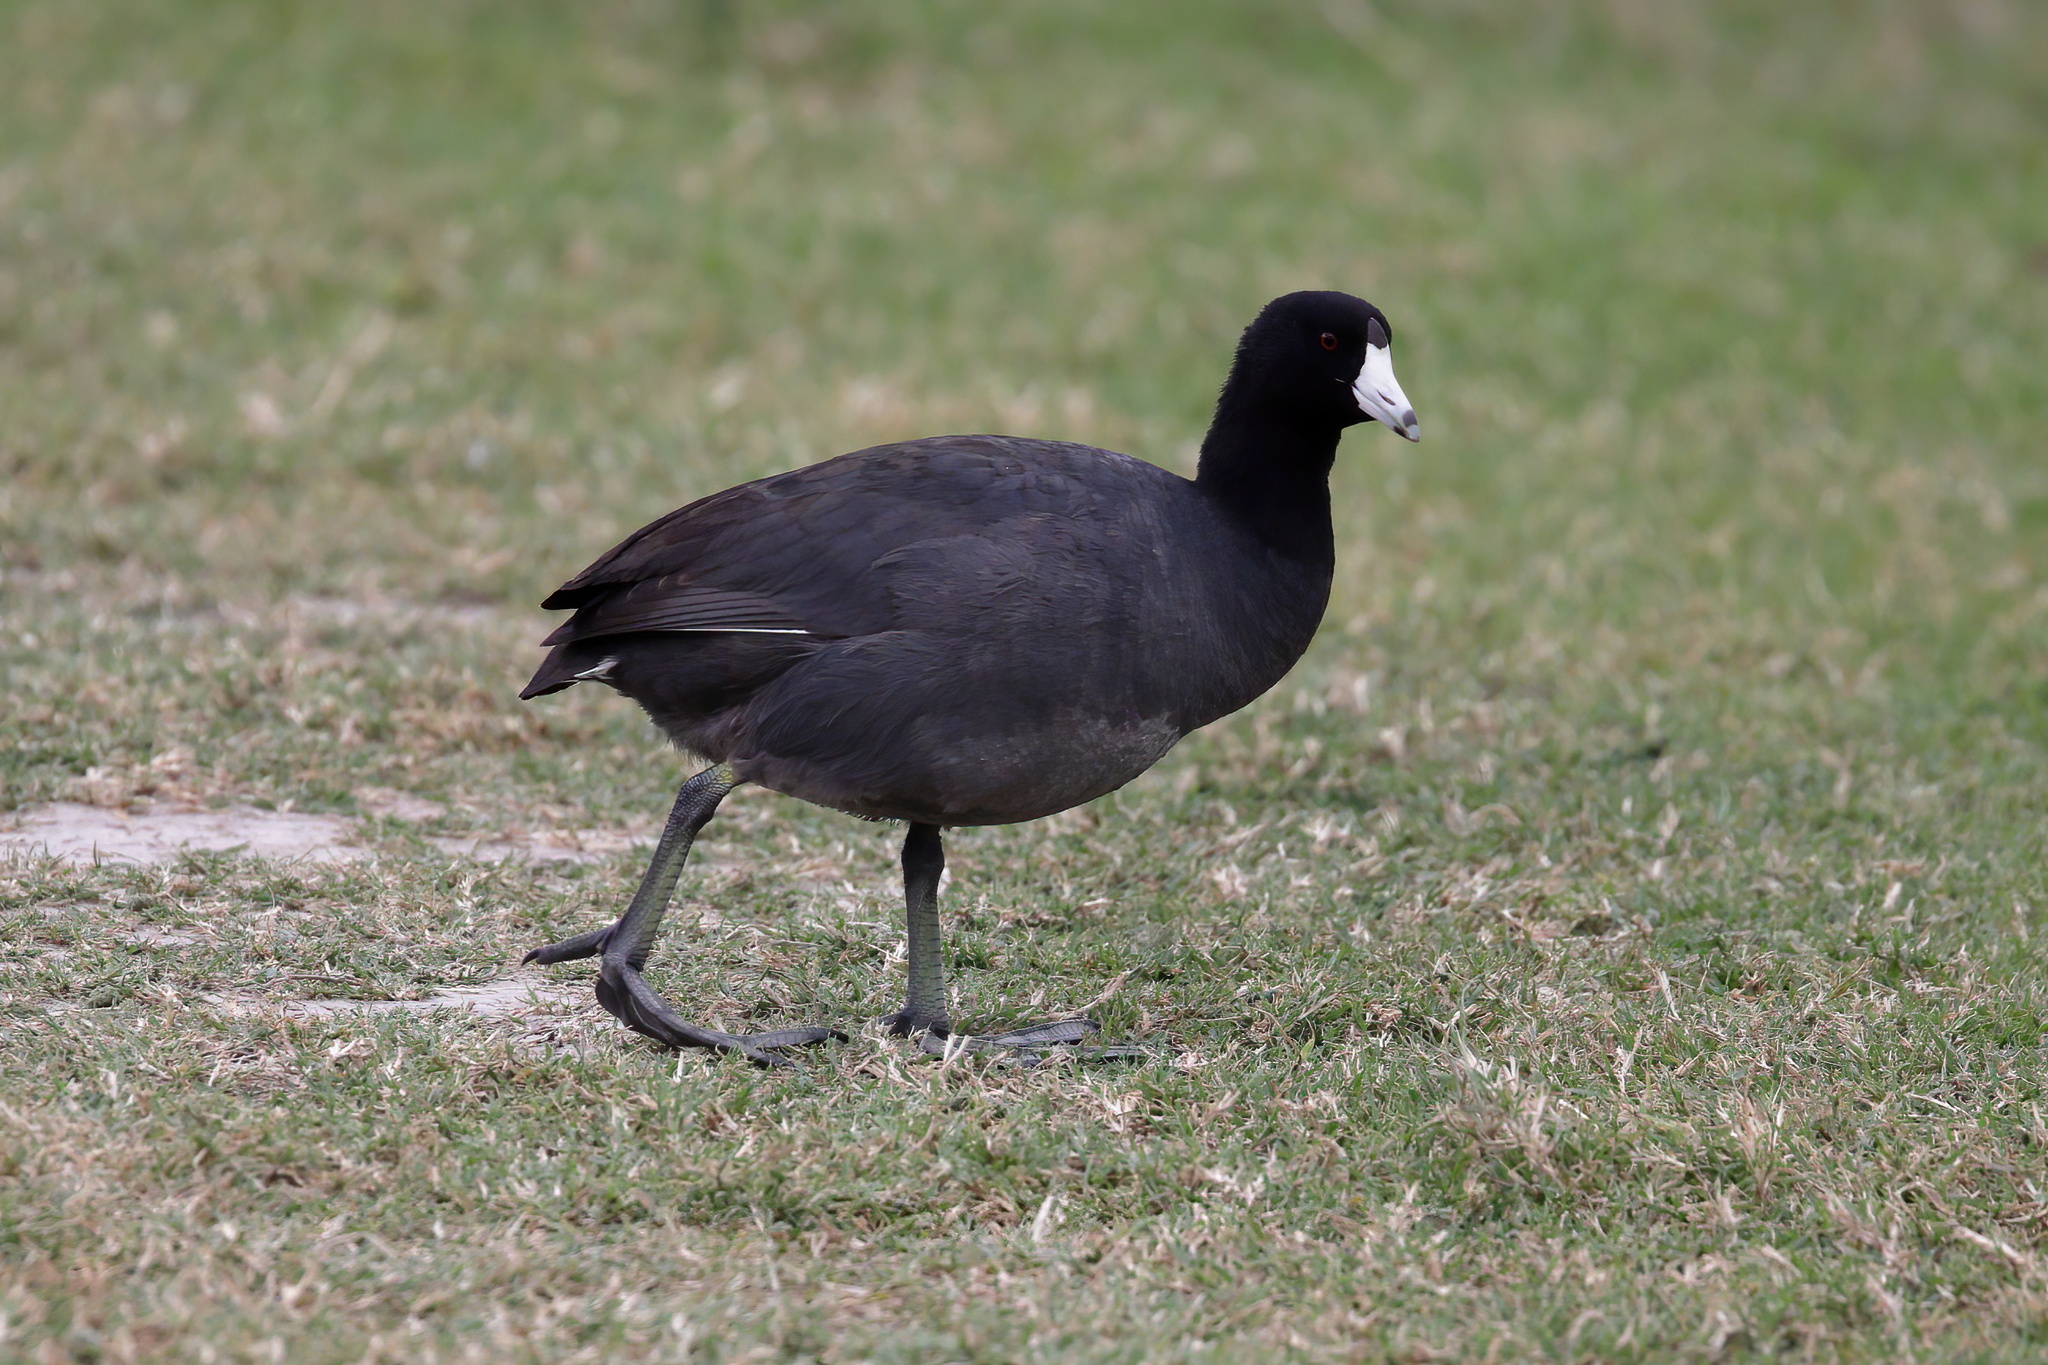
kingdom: Animalia
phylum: Chordata
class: Aves
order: Gruiformes
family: Rallidae
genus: Fulica
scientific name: Fulica americana
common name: American coot
